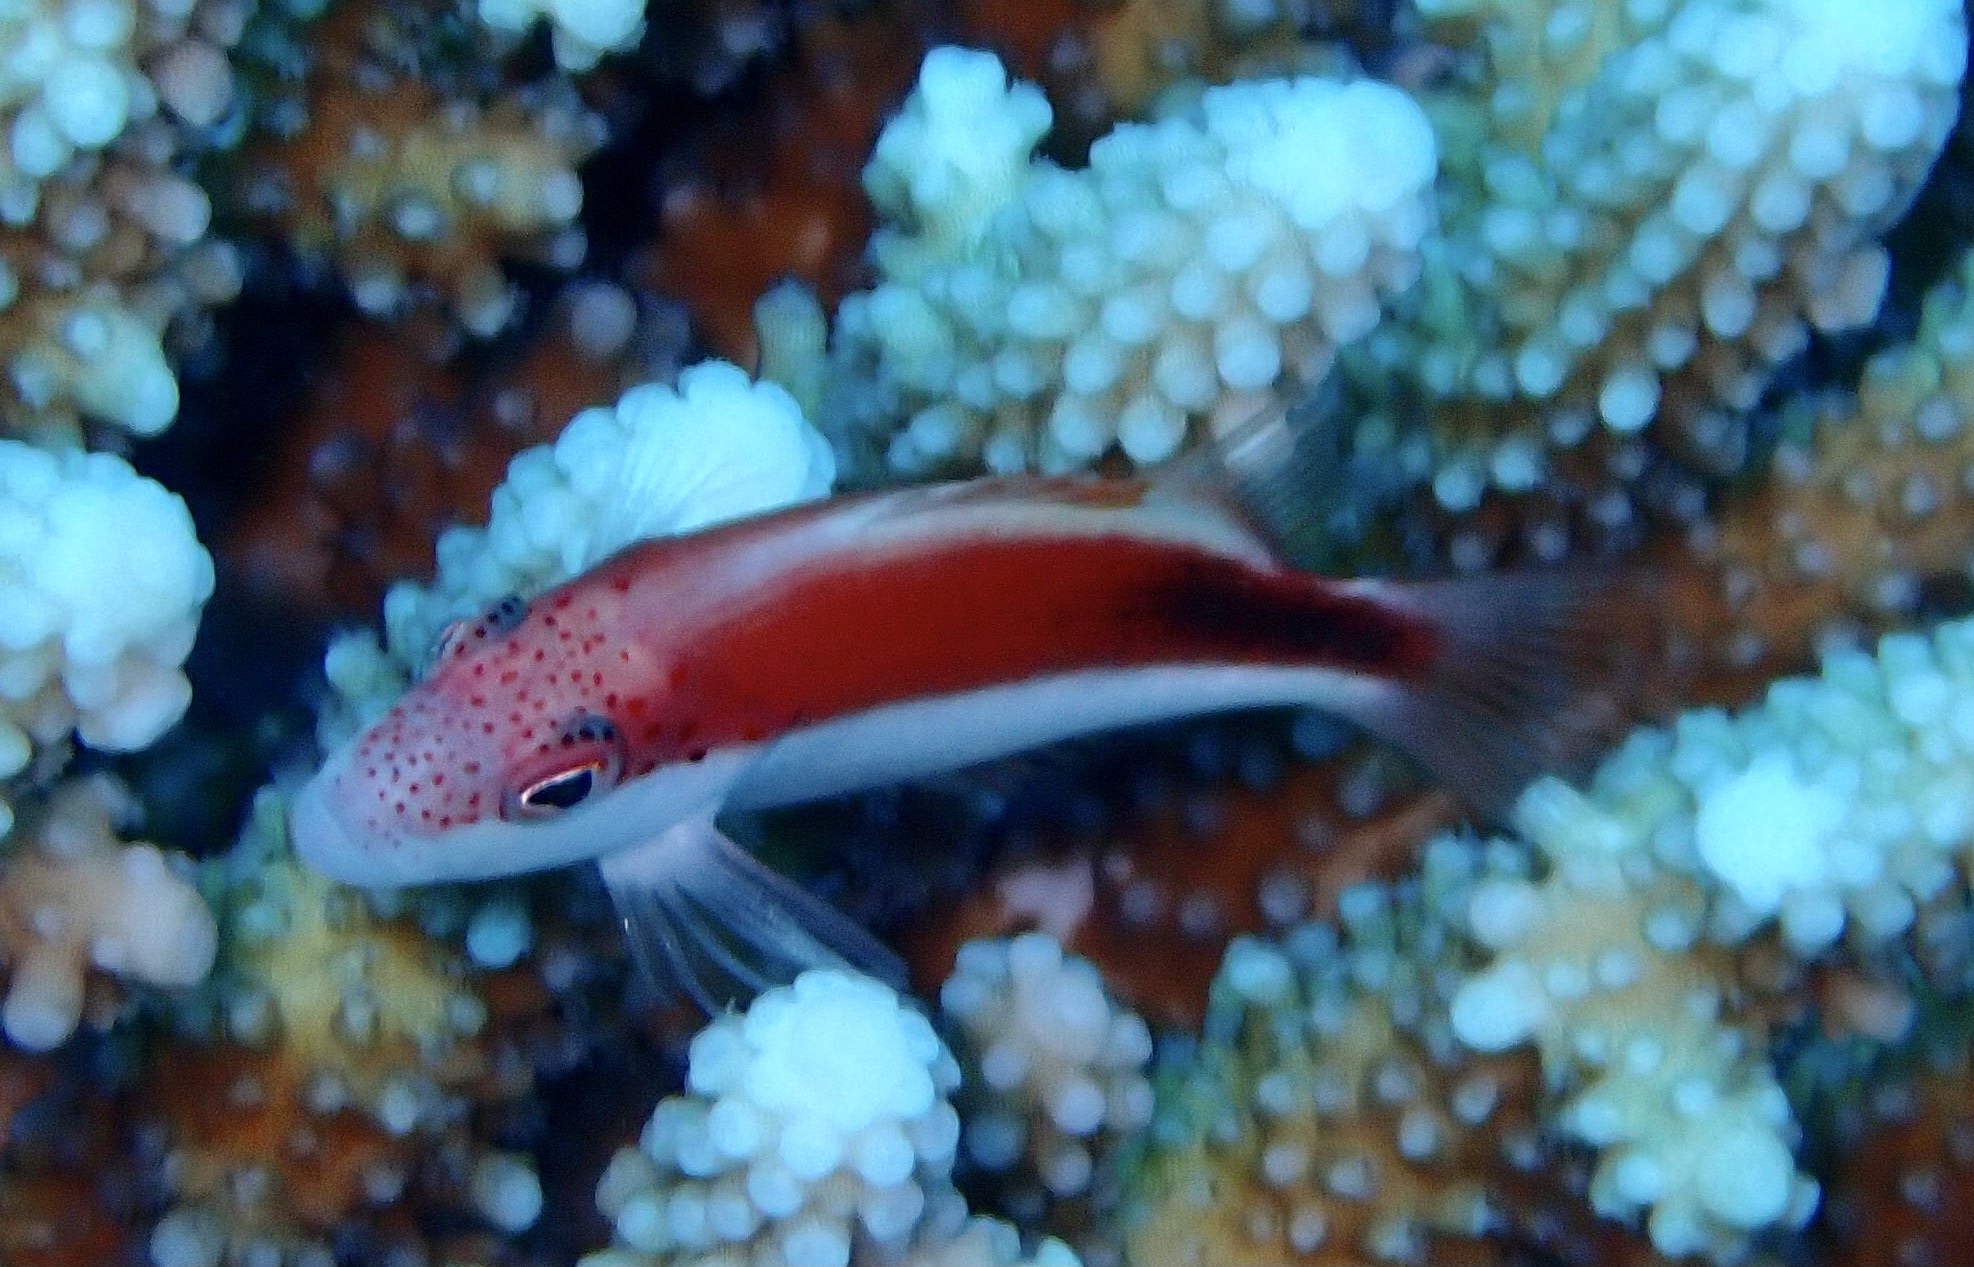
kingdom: Animalia
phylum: Chordata
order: Perciformes
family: Cirrhitidae
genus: Paracirrhites
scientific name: Paracirrhites forsteri
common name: Freckled hawkfish
